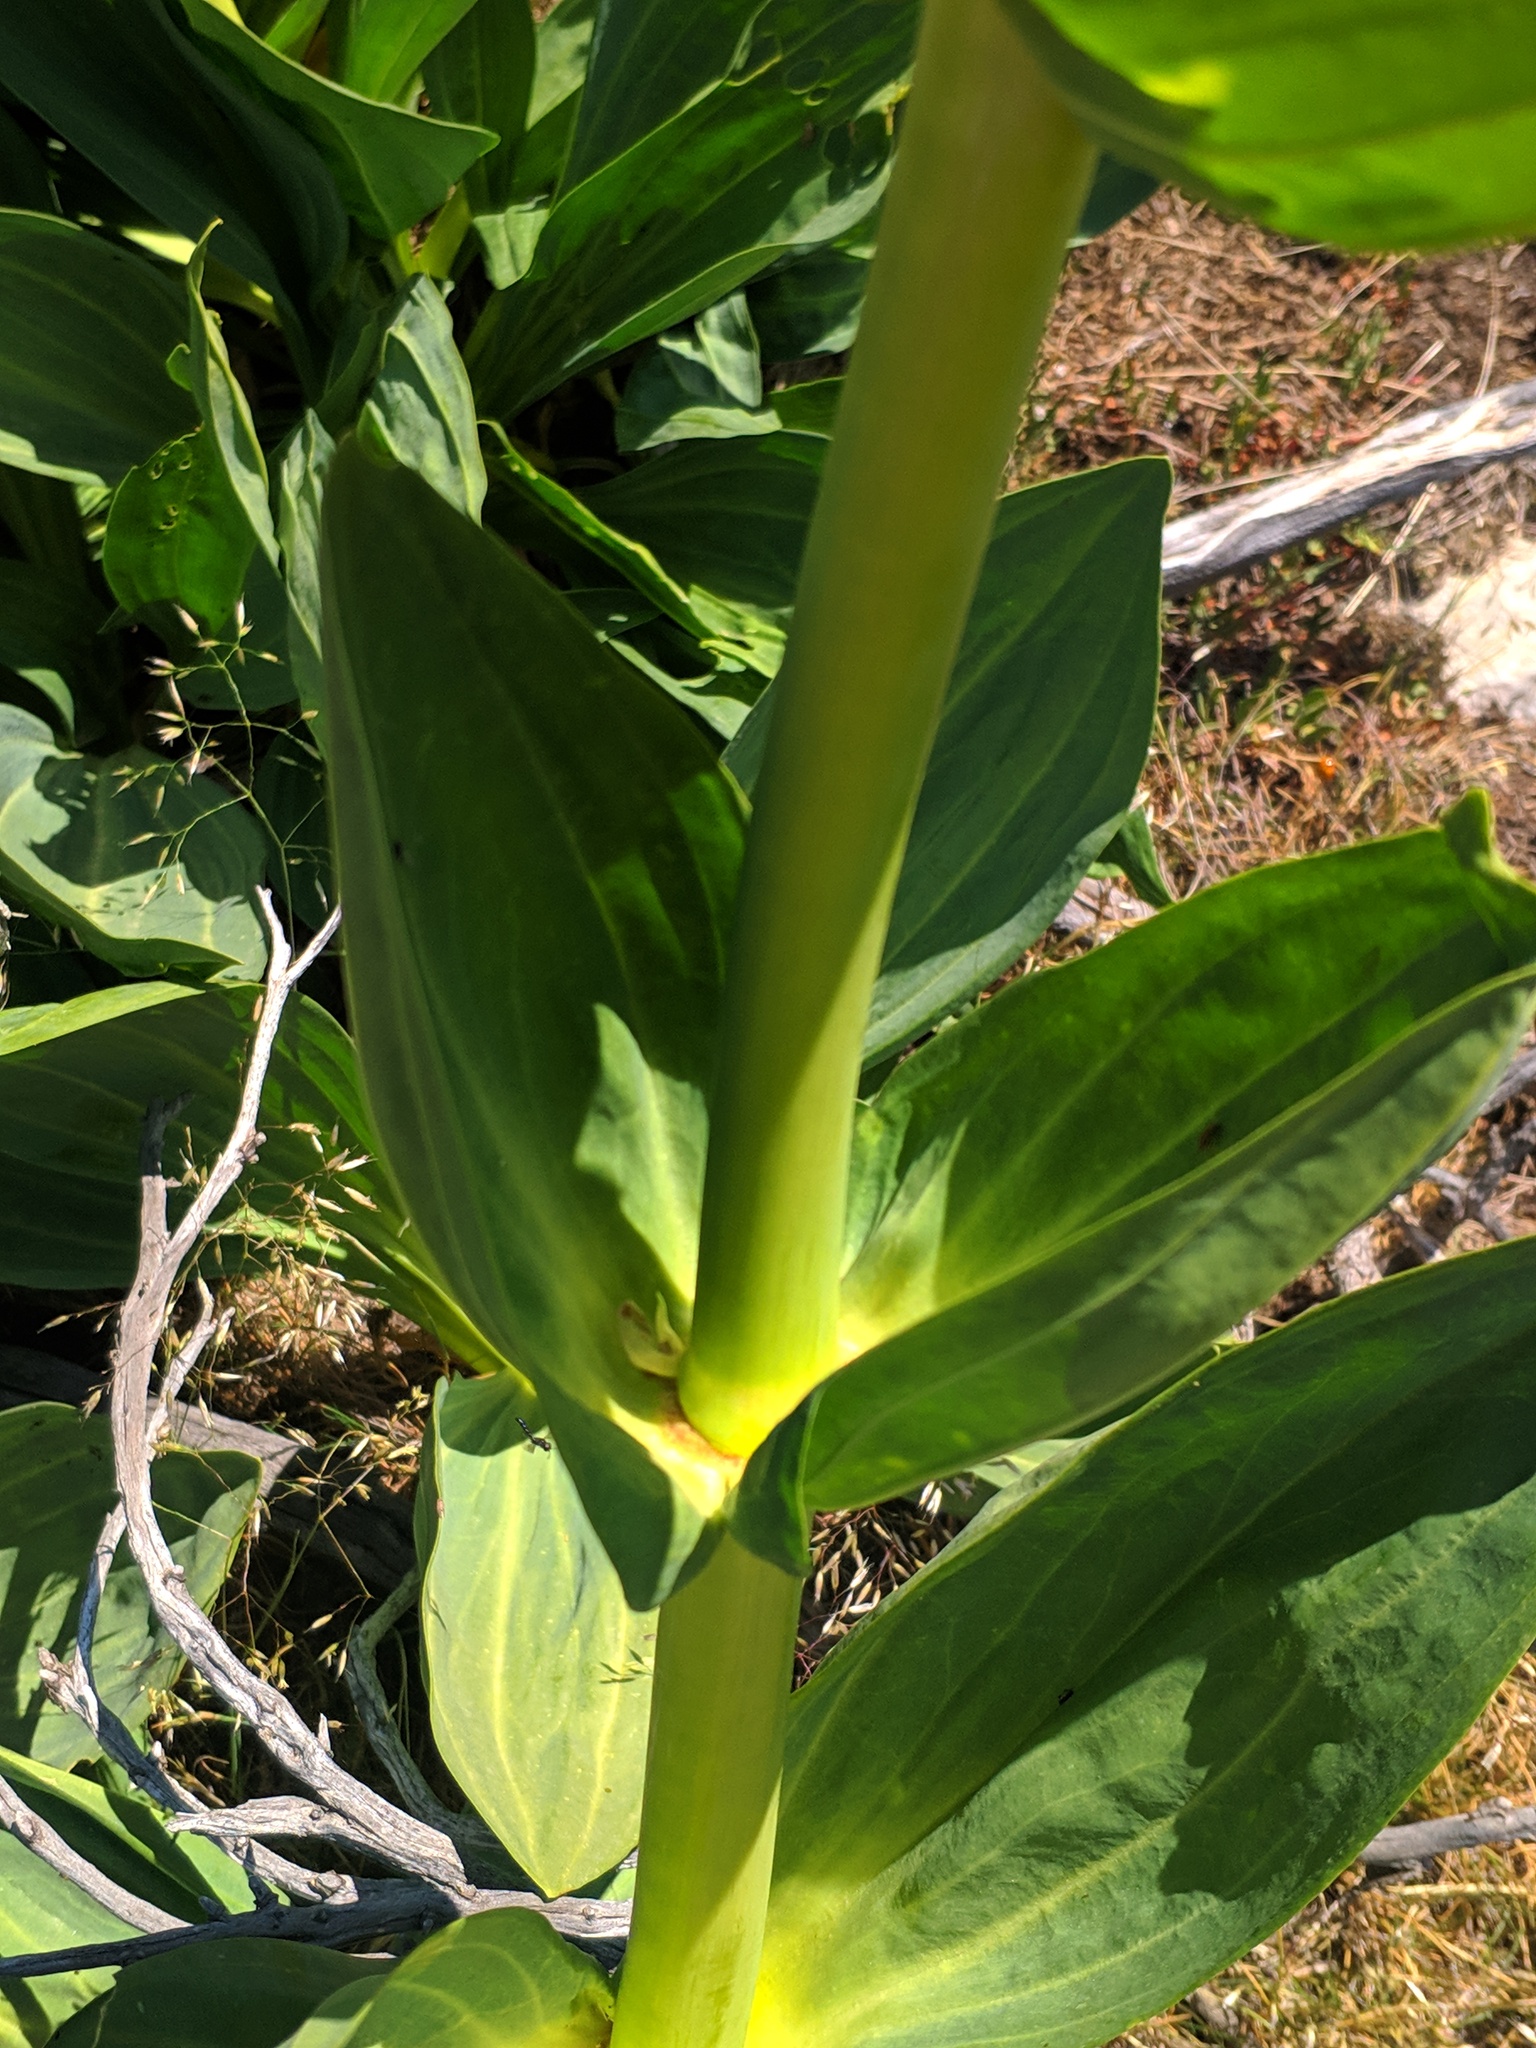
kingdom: Plantae
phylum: Tracheophyta
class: Magnoliopsida
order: Gentianales
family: Gentianaceae
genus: Gentiana
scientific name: Gentiana lutea
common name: Great yellow gentian
